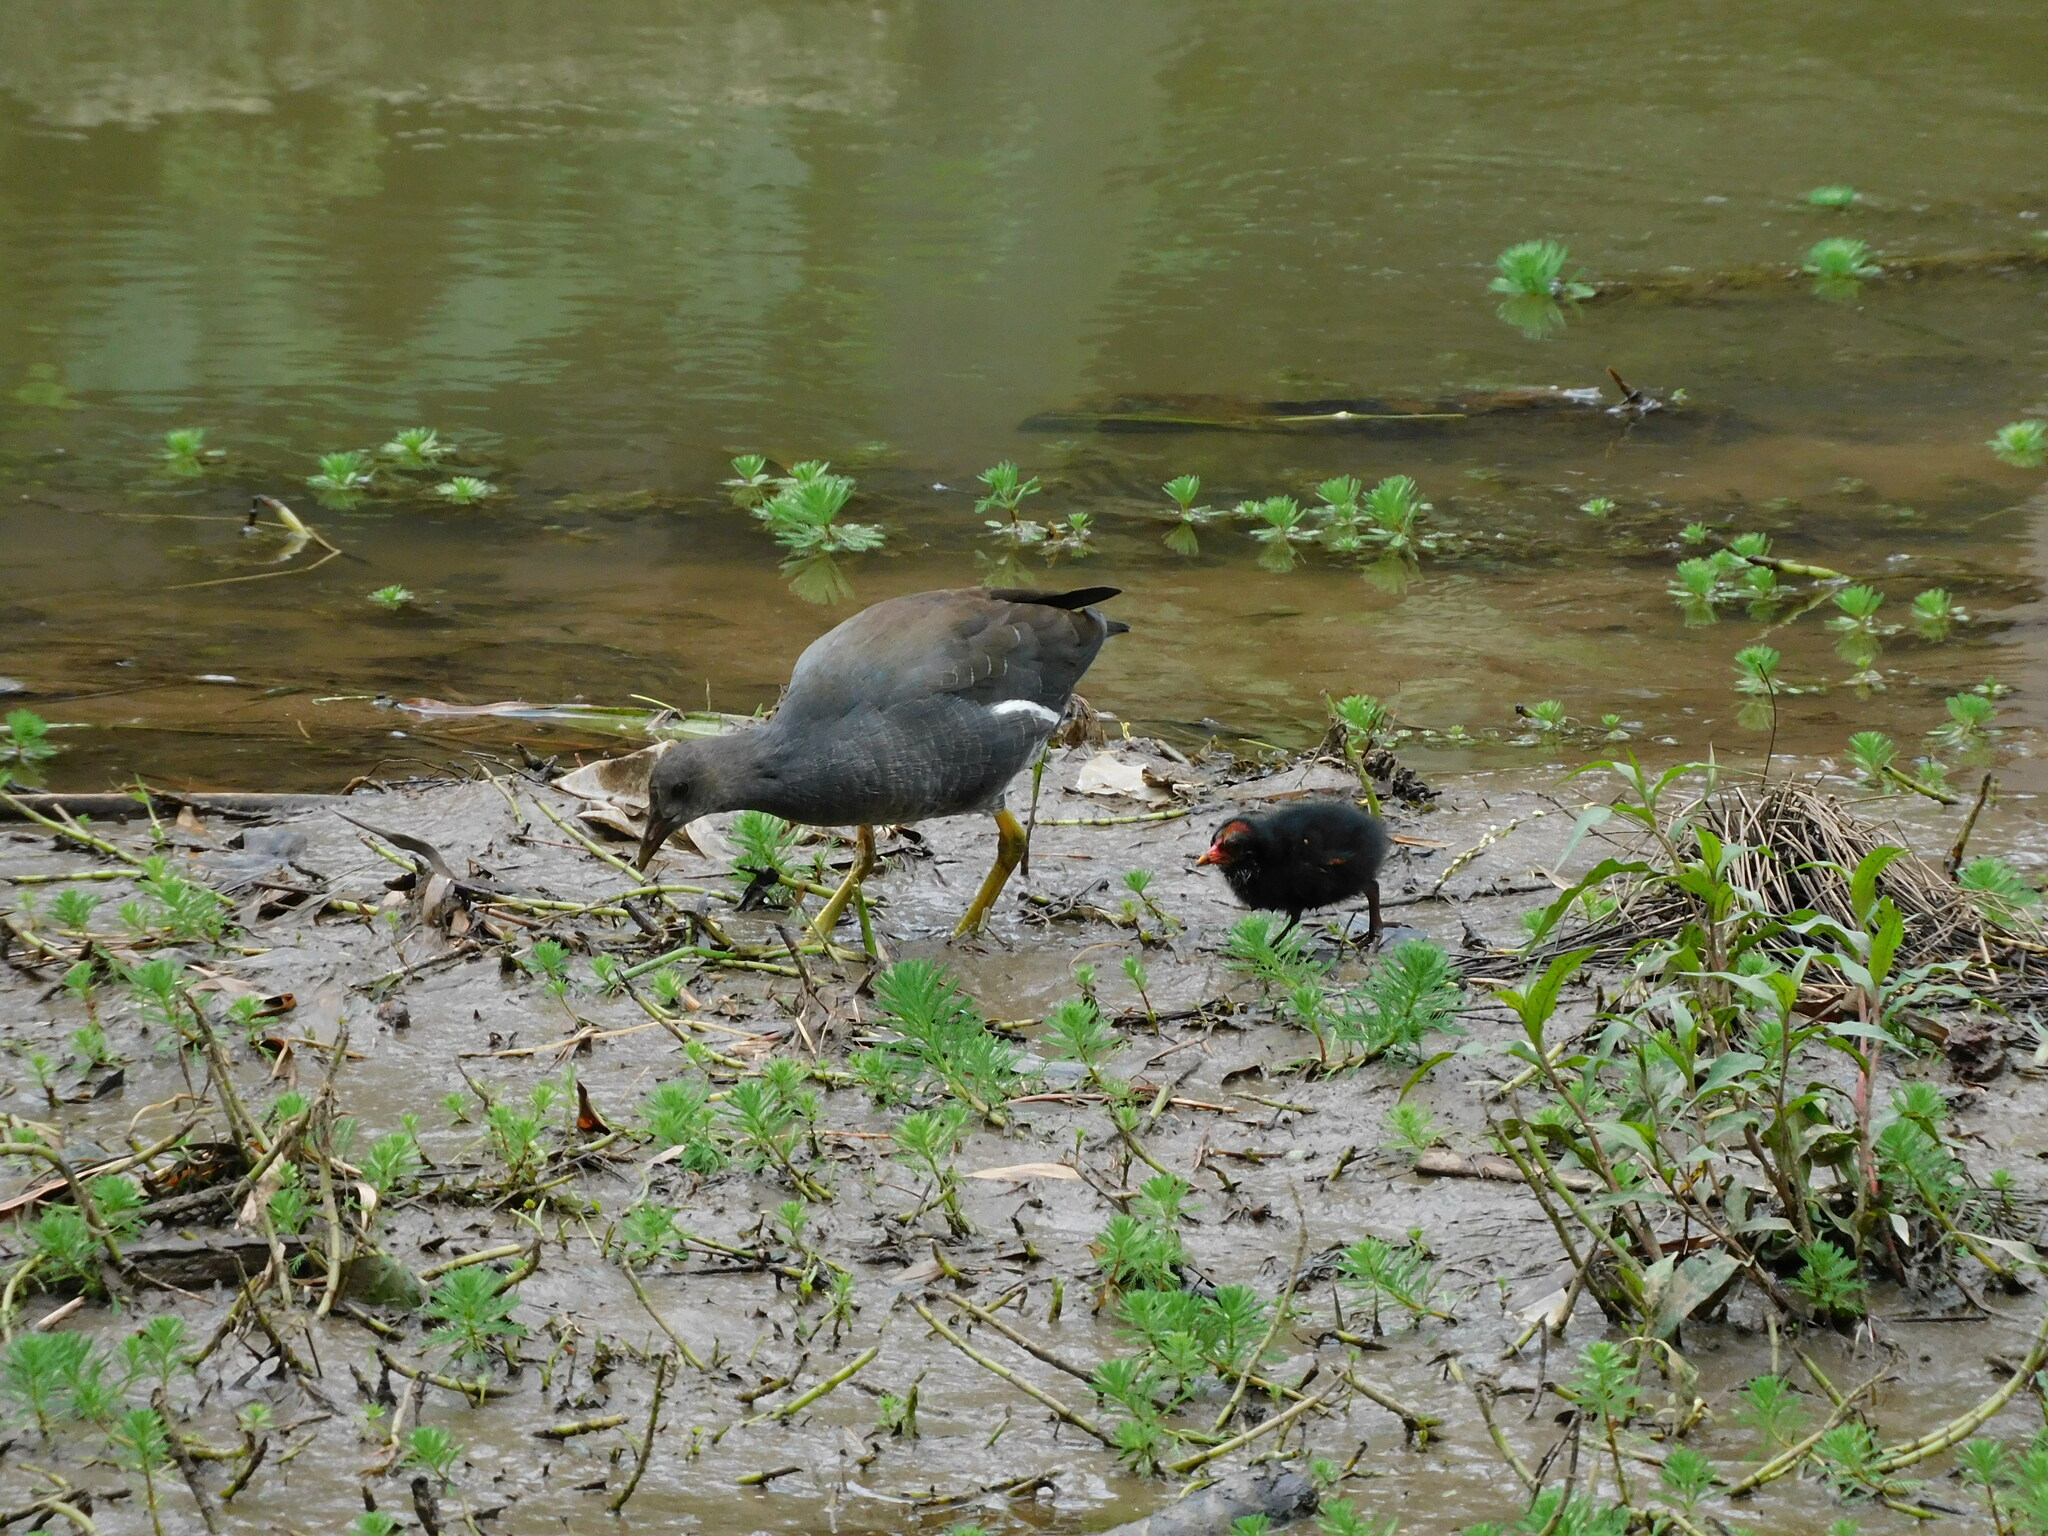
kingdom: Animalia
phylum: Chordata
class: Aves
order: Gruiformes
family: Rallidae
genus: Gallinula
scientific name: Gallinula chloropus
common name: Common moorhen
